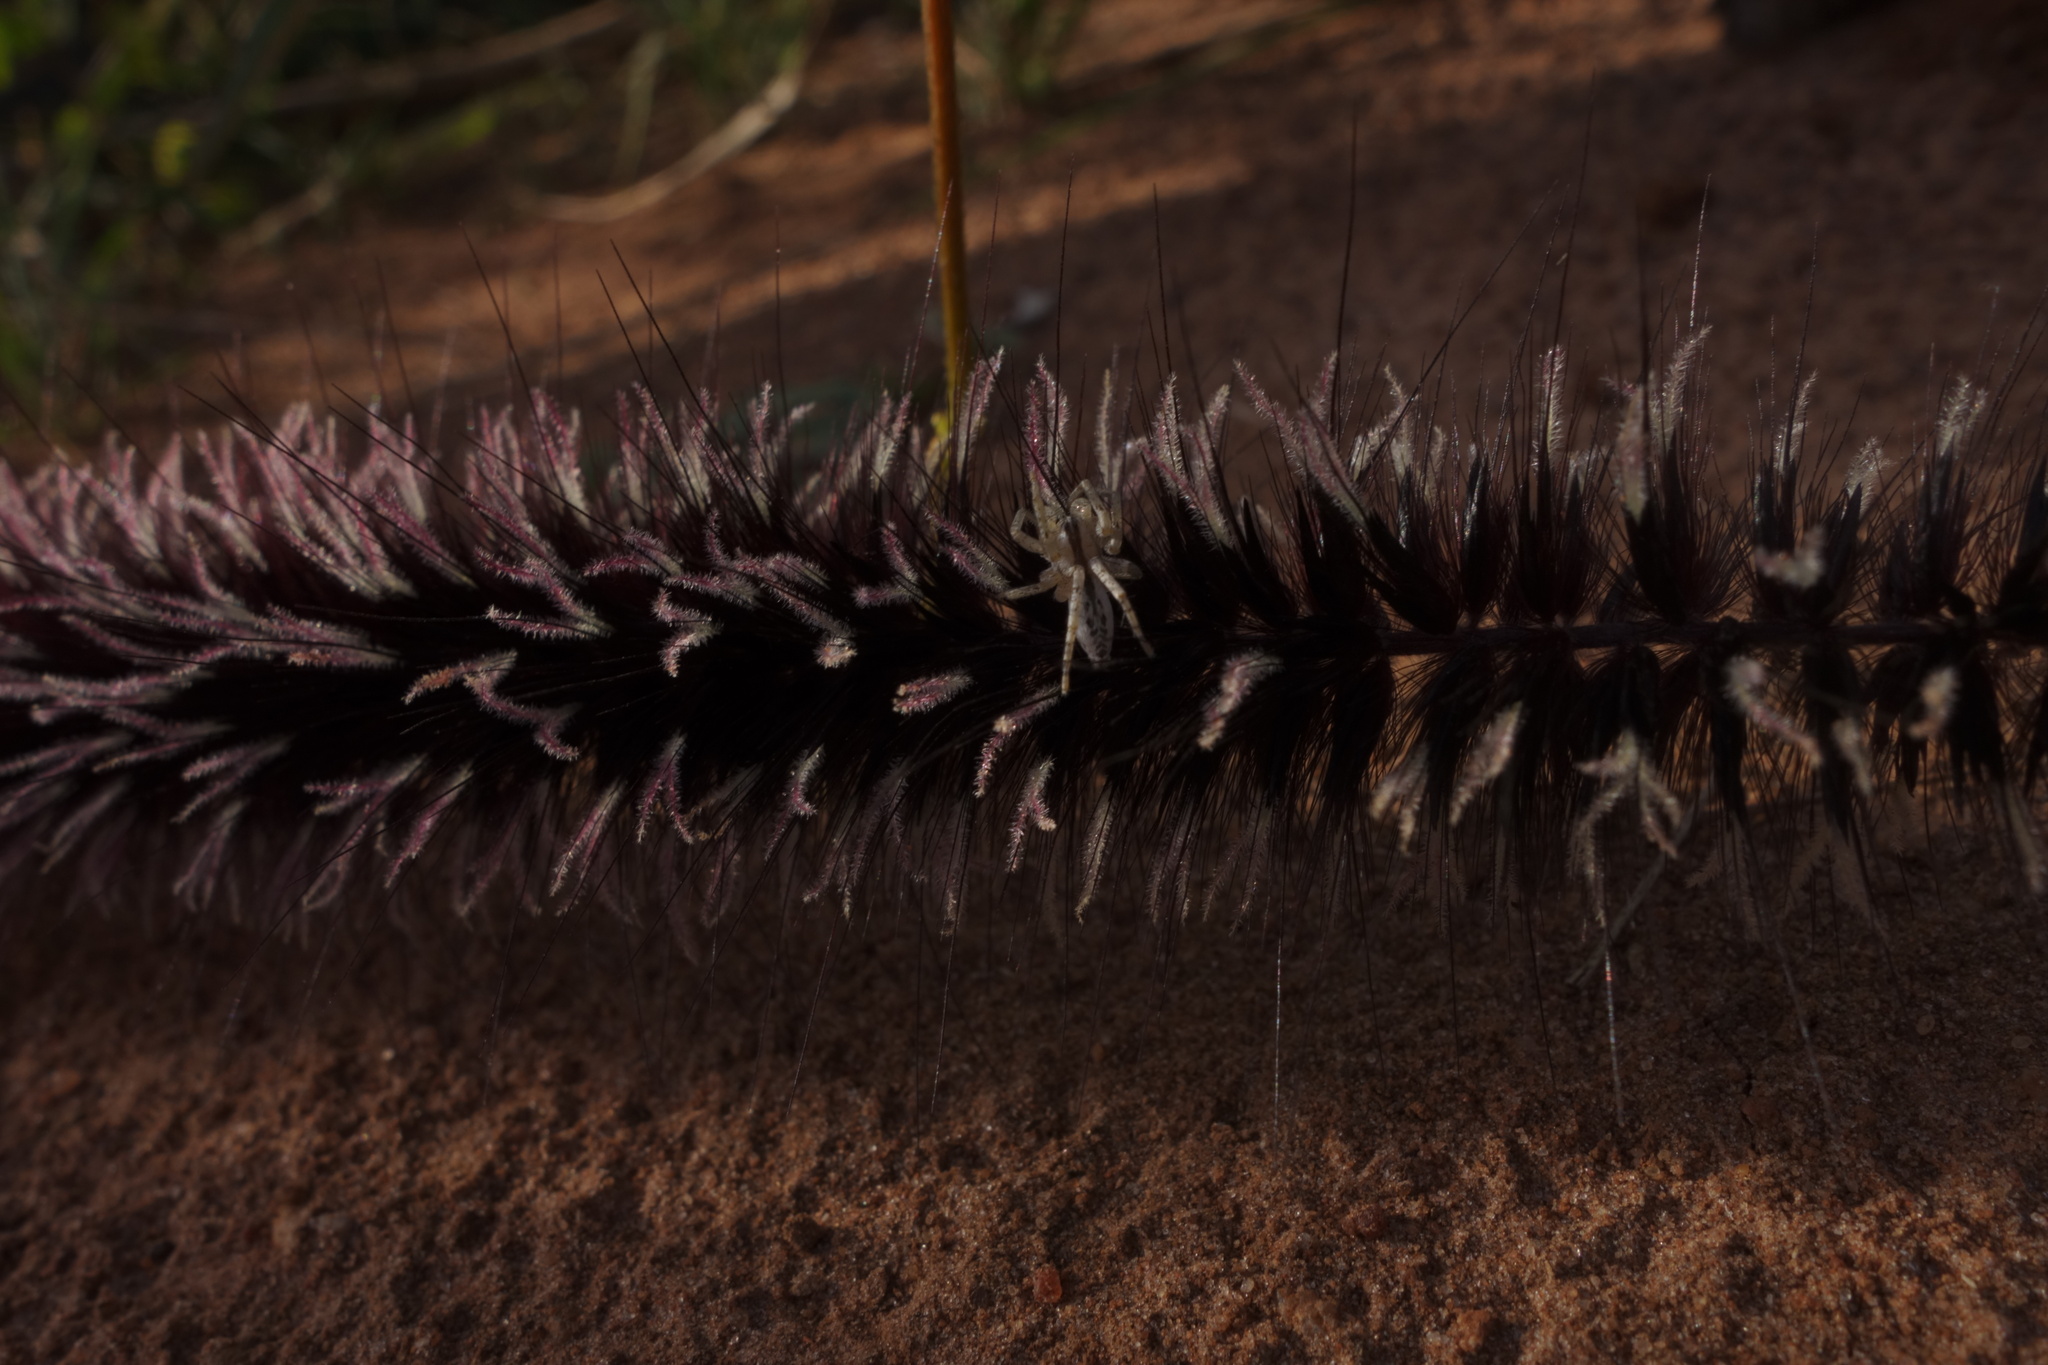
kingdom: Animalia
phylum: Arthropoda
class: Arachnida
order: Araneae
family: Anyphaenidae
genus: Arachosia
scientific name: Arachosia praesignis
